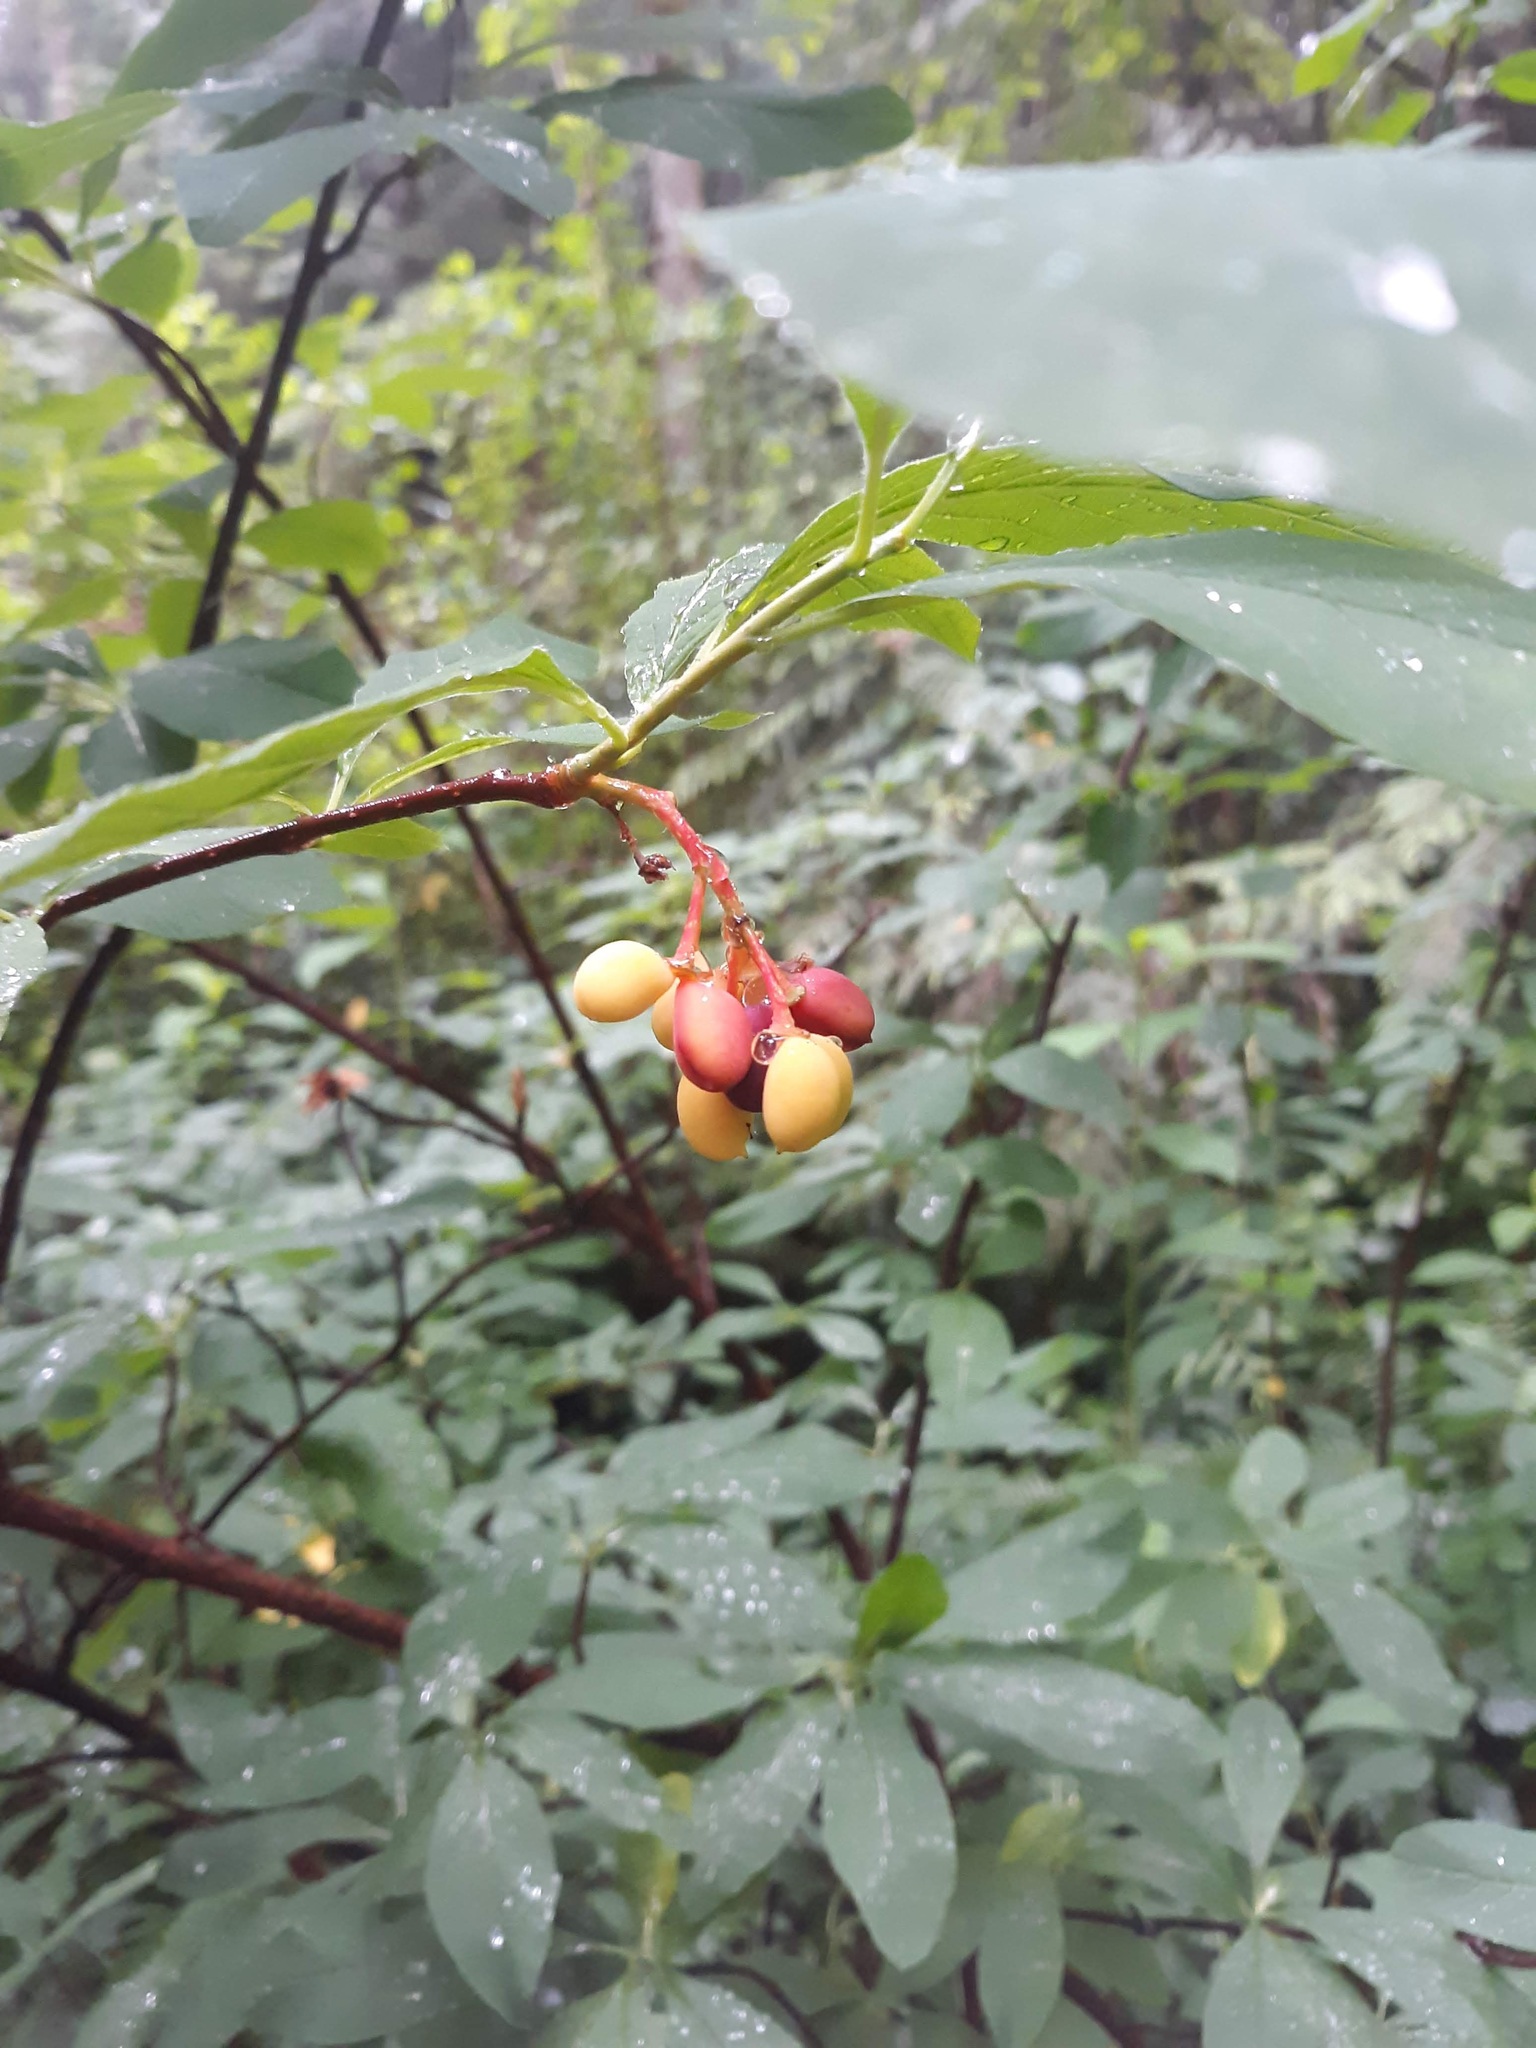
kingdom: Plantae
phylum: Tracheophyta
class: Magnoliopsida
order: Rosales
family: Rosaceae
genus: Oemleria
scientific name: Oemleria cerasiformis
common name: Osoberry
